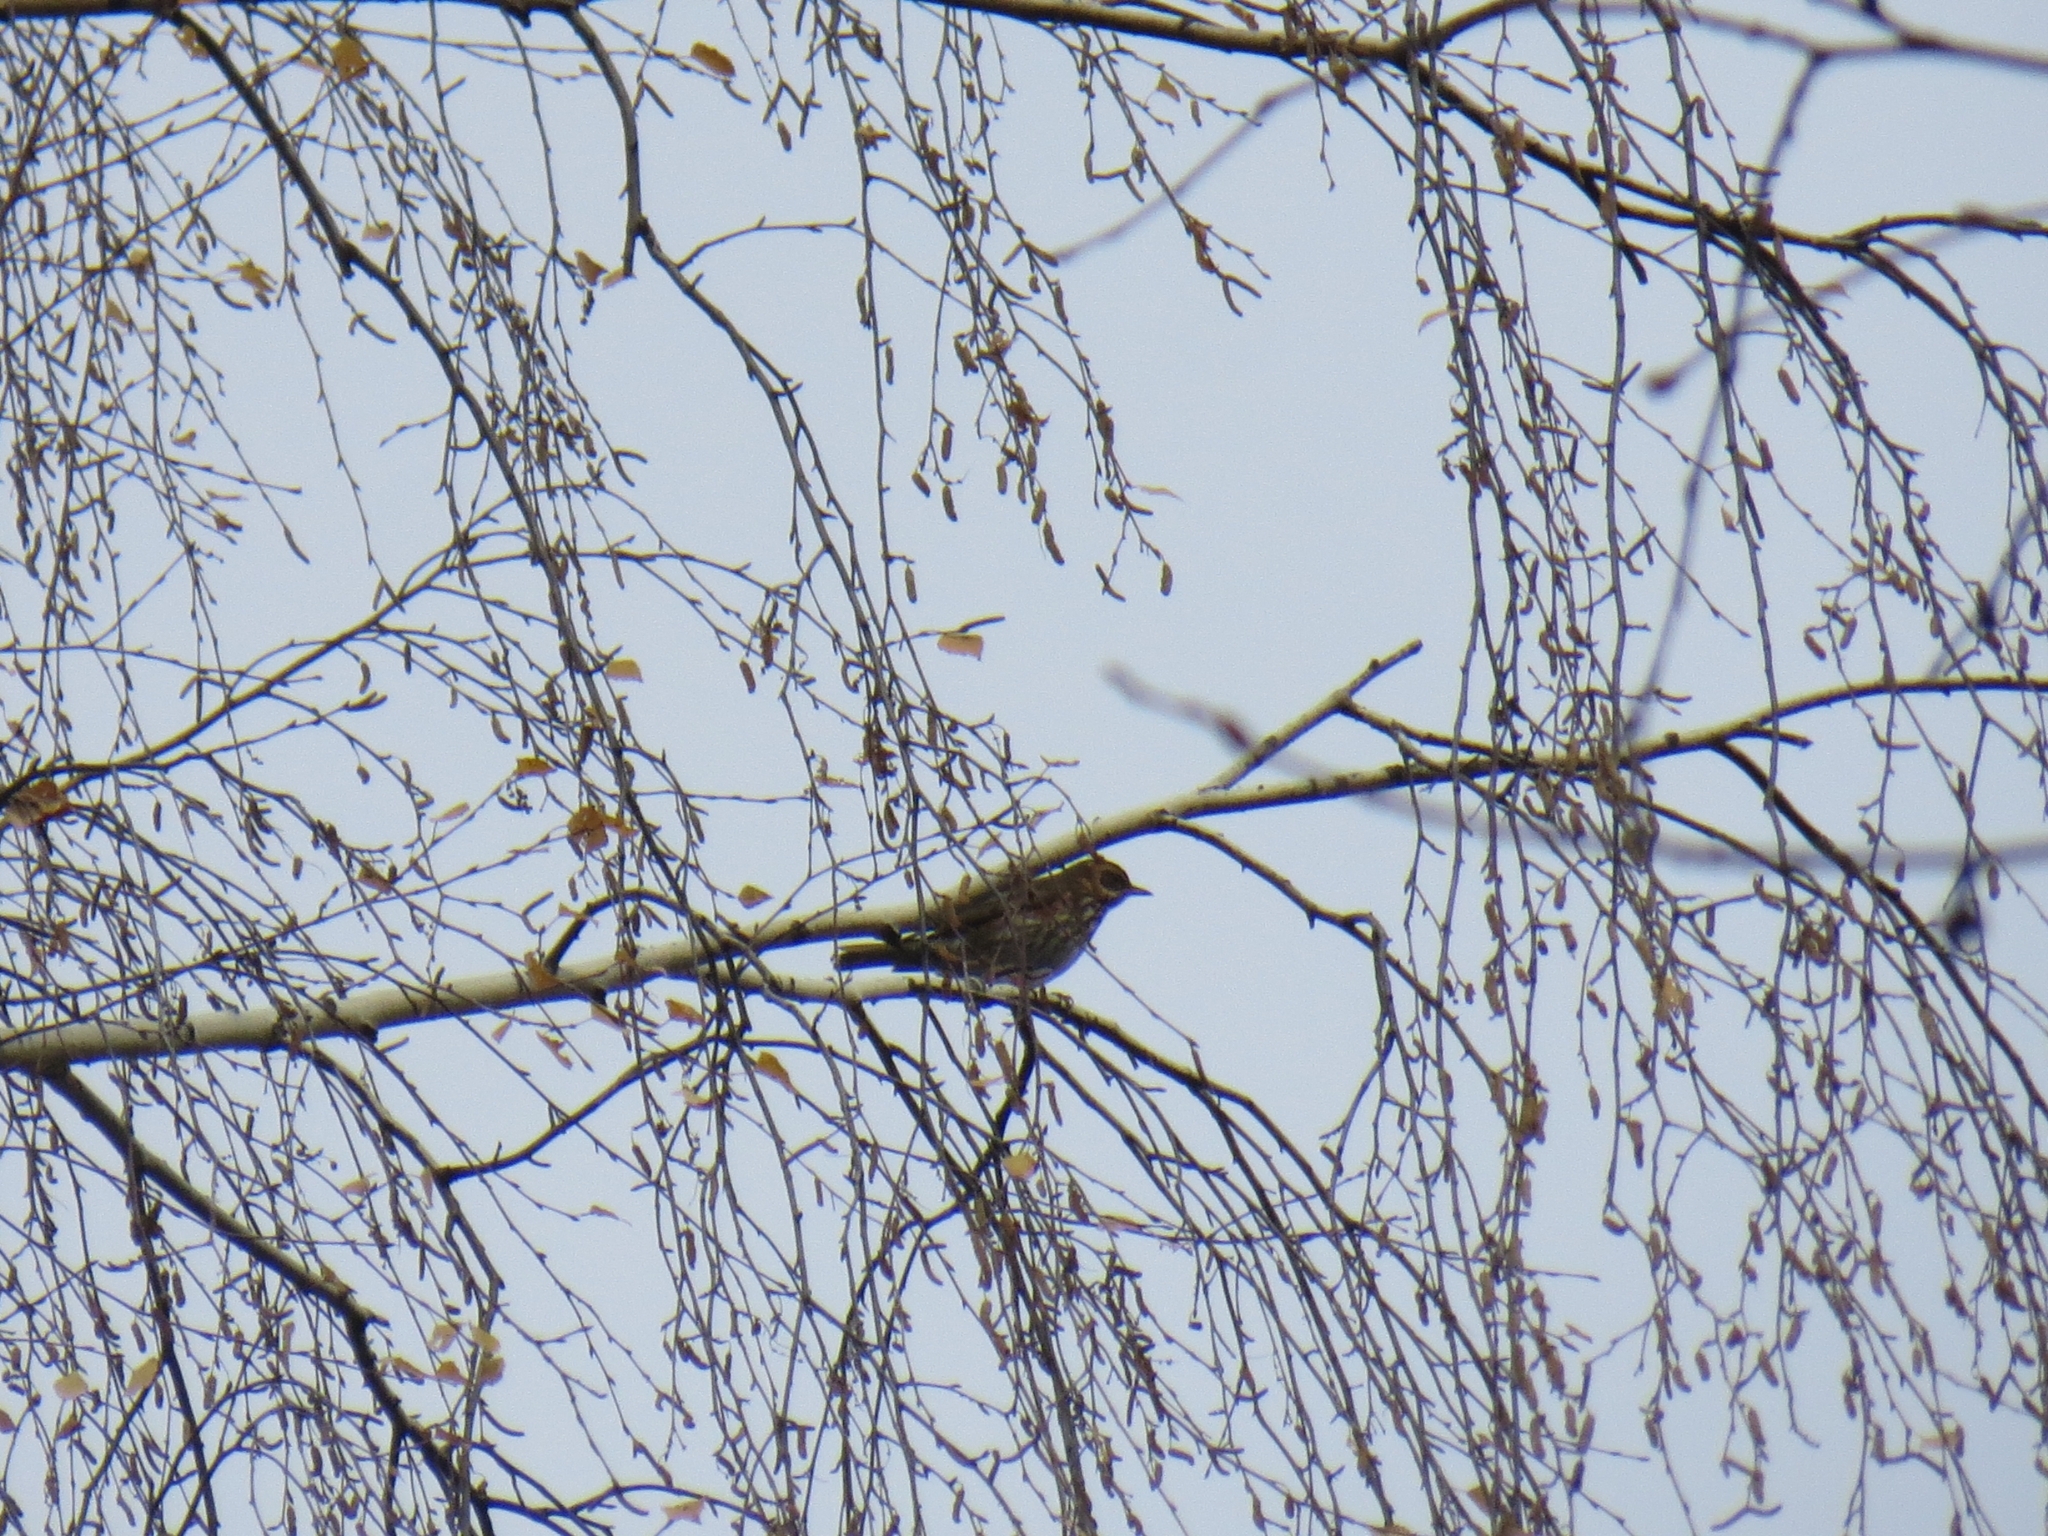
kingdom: Animalia
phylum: Chordata
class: Aves
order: Passeriformes
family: Turdidae
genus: Turdus
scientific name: Turdus iliacus
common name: Redwing
